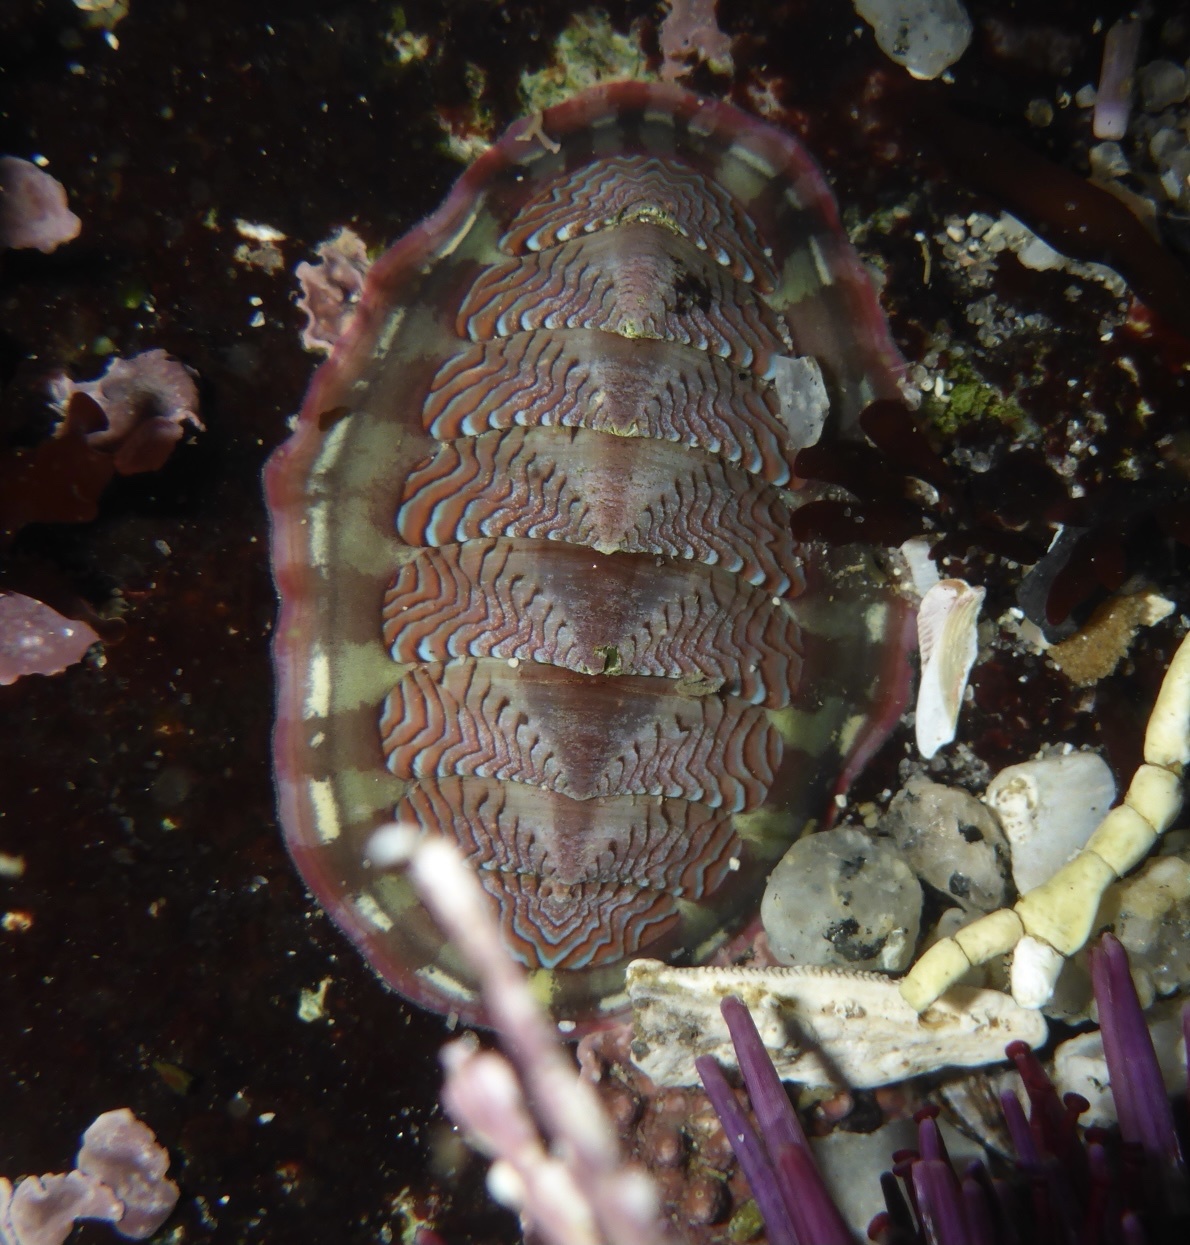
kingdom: Animalia
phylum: Mollusca
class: Polyplacophora
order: Chitonida
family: Tonicellidae
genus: Tonicella
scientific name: Tonicella lokii
